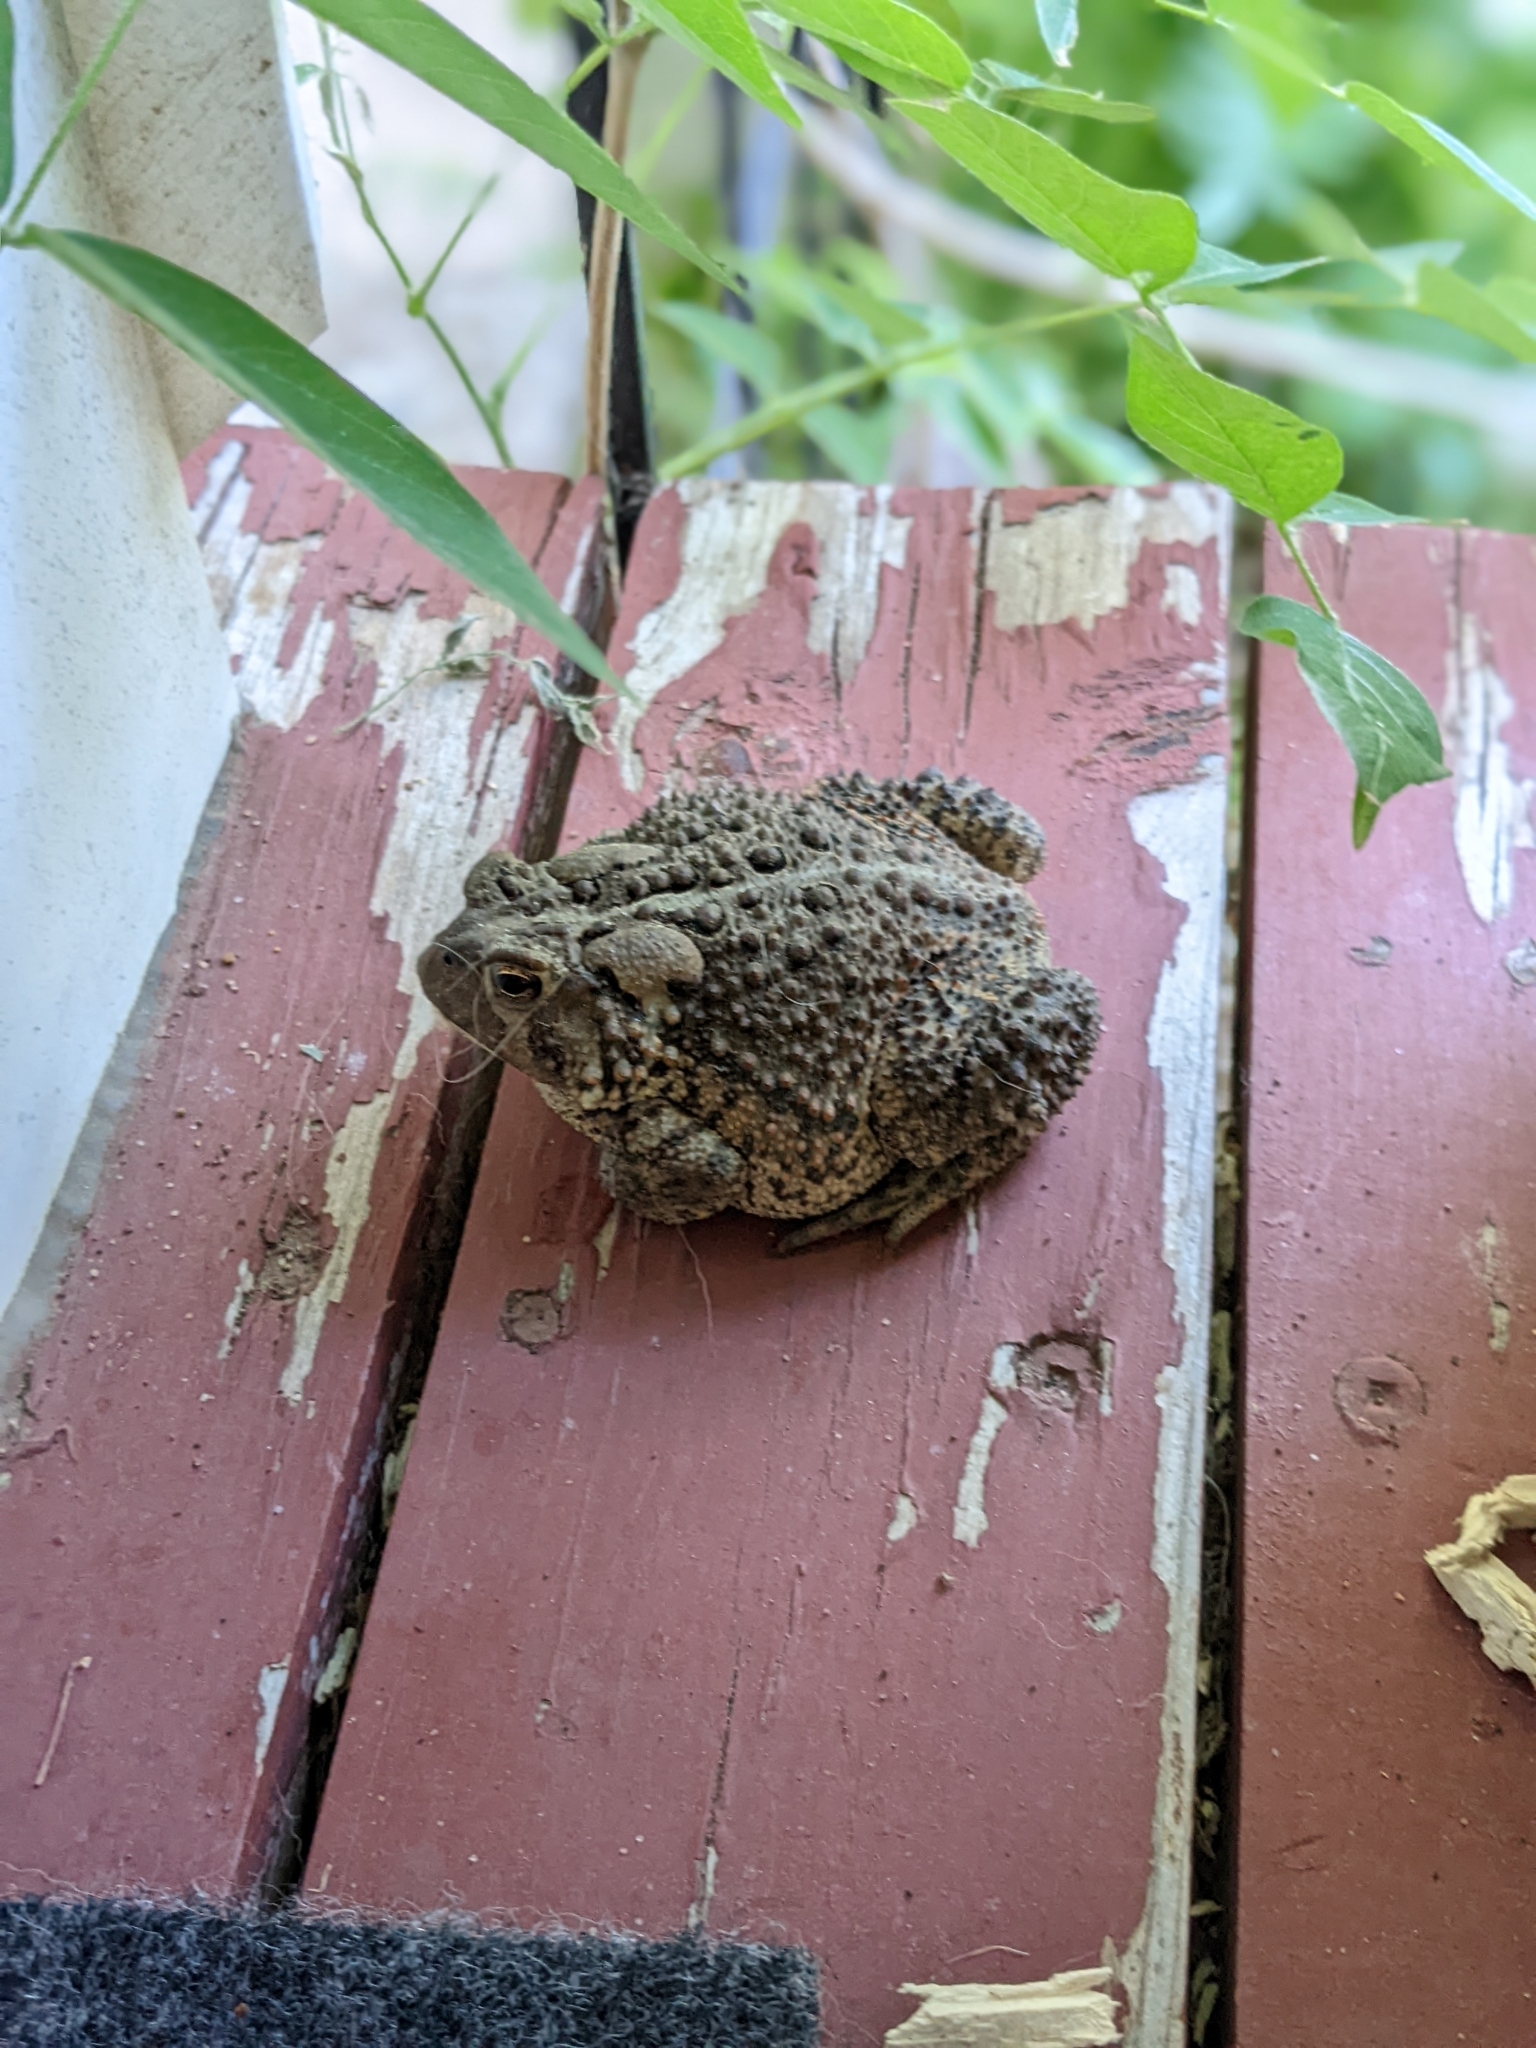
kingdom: Animalia
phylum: Chordata
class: Amphibia
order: Anura
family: Bufonidae
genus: Anaxyrus
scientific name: Anaxyrus americanus
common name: American toad
